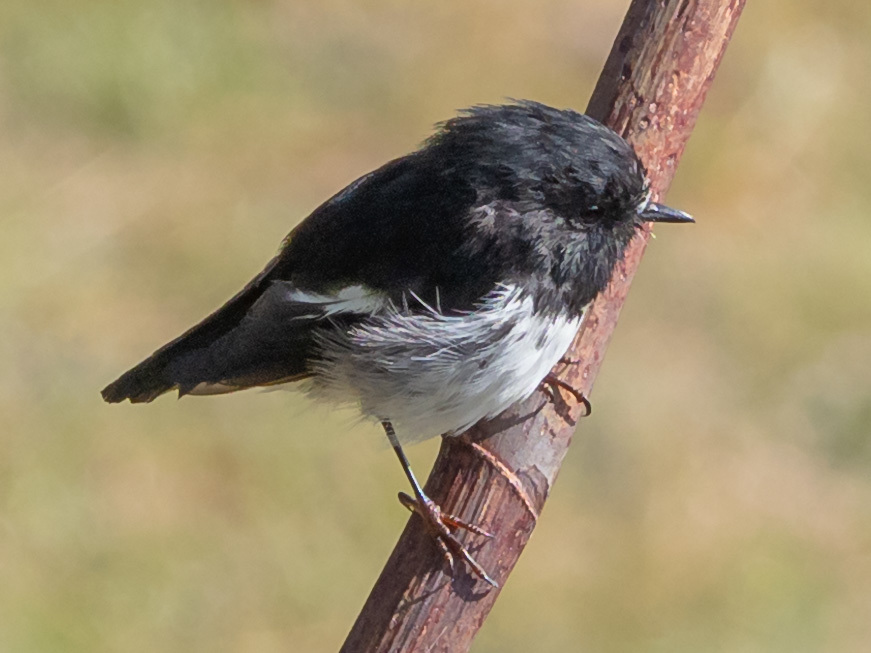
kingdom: Animalia
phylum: Chordata
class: Aves
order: Passeriformes
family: Petroicidae
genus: Petroica
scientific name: Petroica macrocephala
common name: Tomtit
